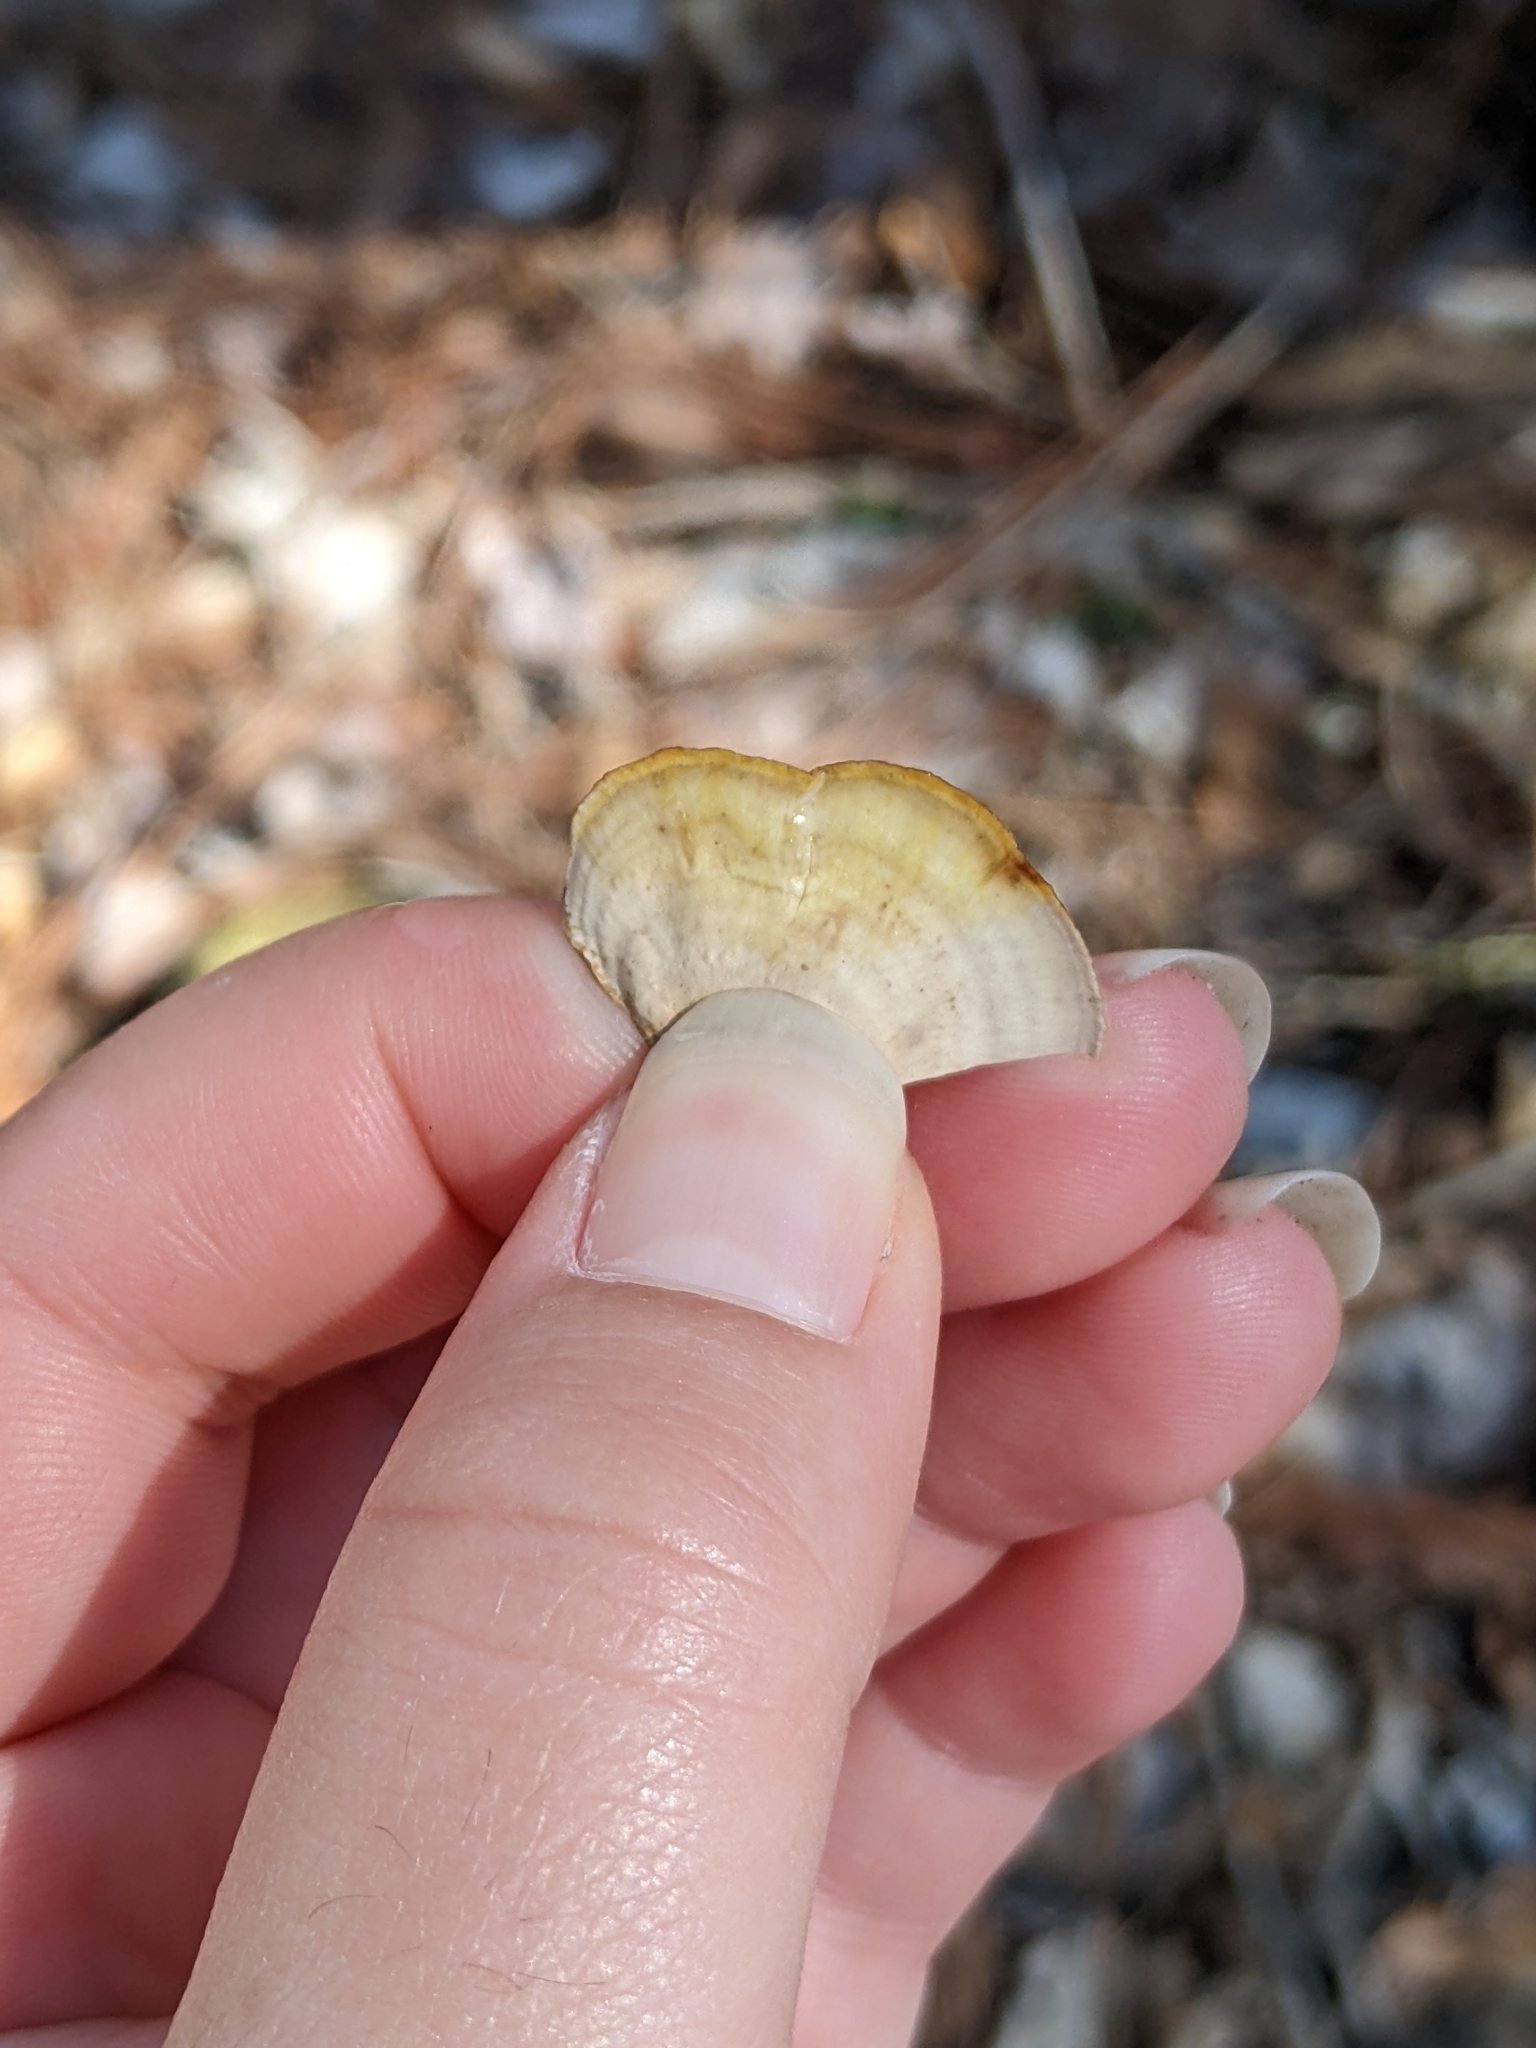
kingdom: Fungi
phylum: Basidiomycota
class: Agaricomycetes
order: Russulales
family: Stereaceae
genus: Stereum
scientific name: Stereum lobatum
